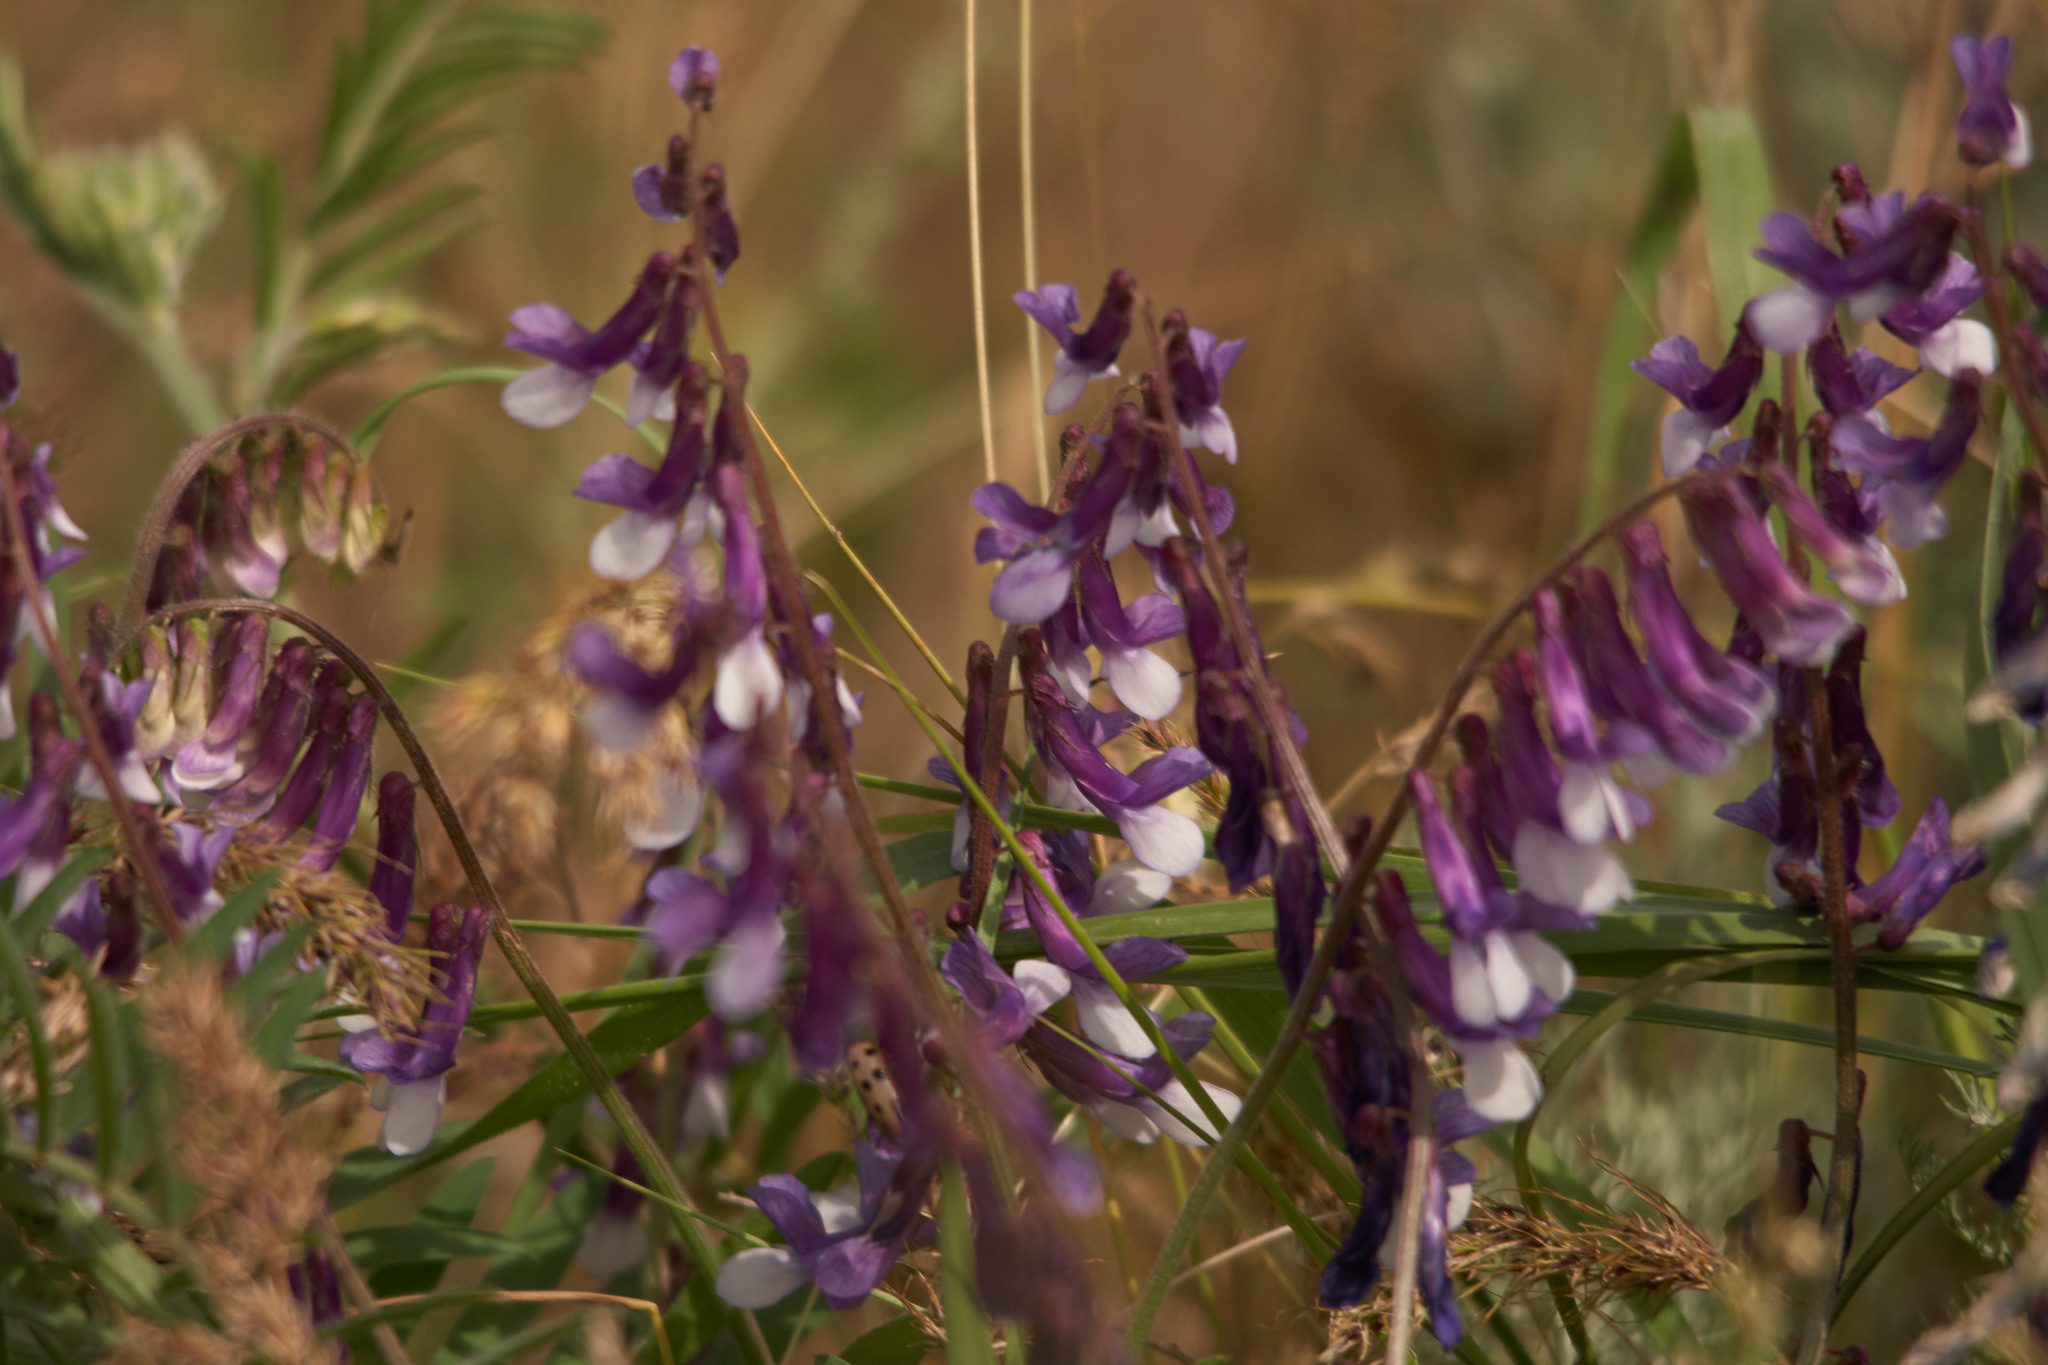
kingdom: Plantae
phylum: Tracheophyta
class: Magnoliopsida
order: Fabales
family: Fabaceae
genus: Vicia
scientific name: Vicia villosa
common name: Fodder vetch
